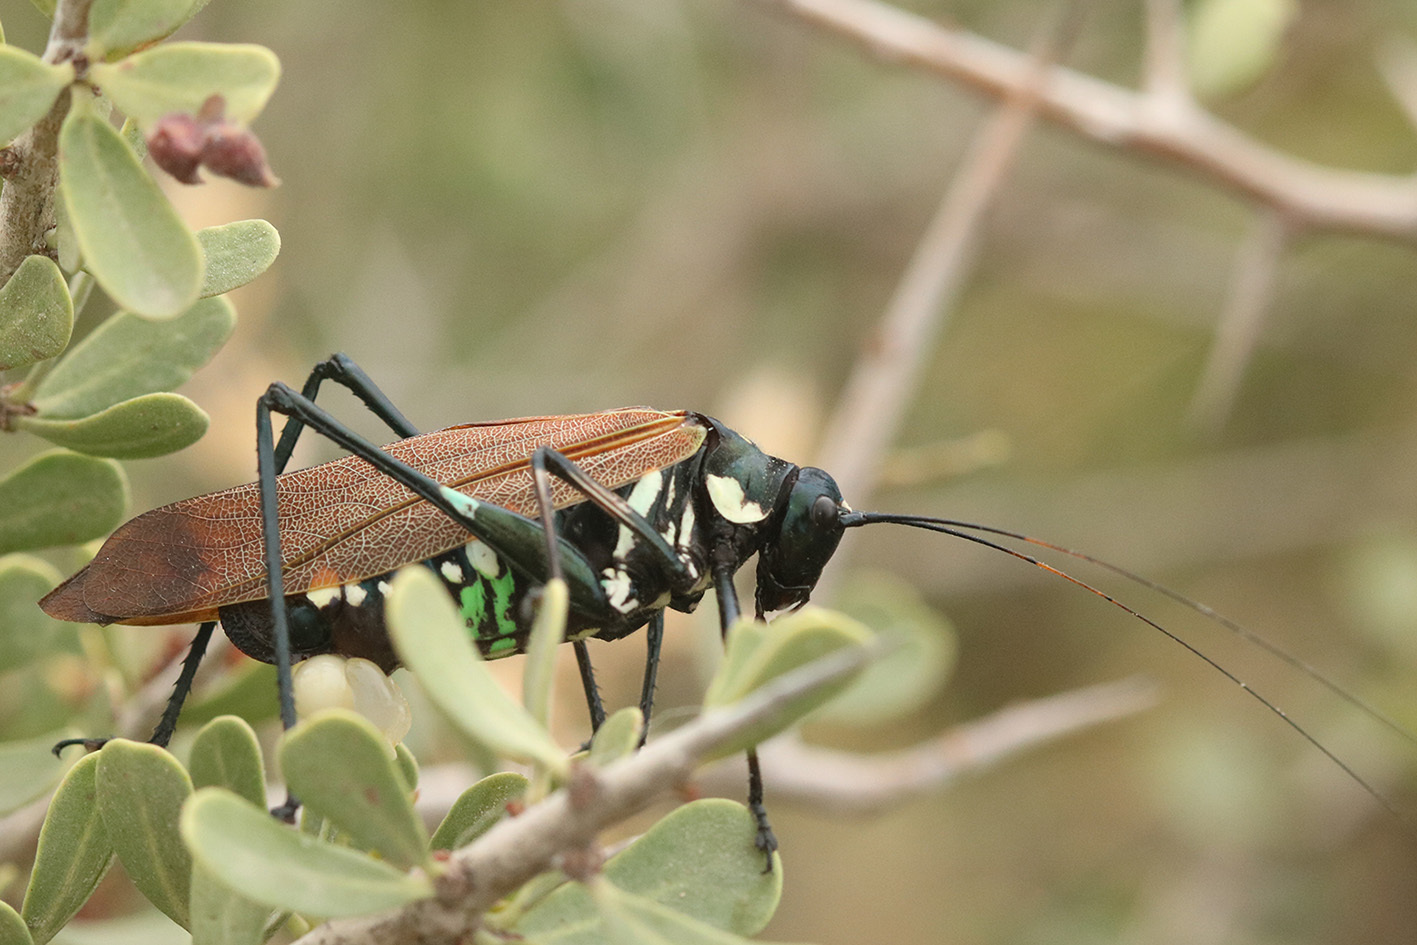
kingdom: Animalia
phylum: Arthropoda
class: Insecta
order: Orthoptera
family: Tettigoniidae
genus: Scaphura
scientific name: Scaphura elegans
